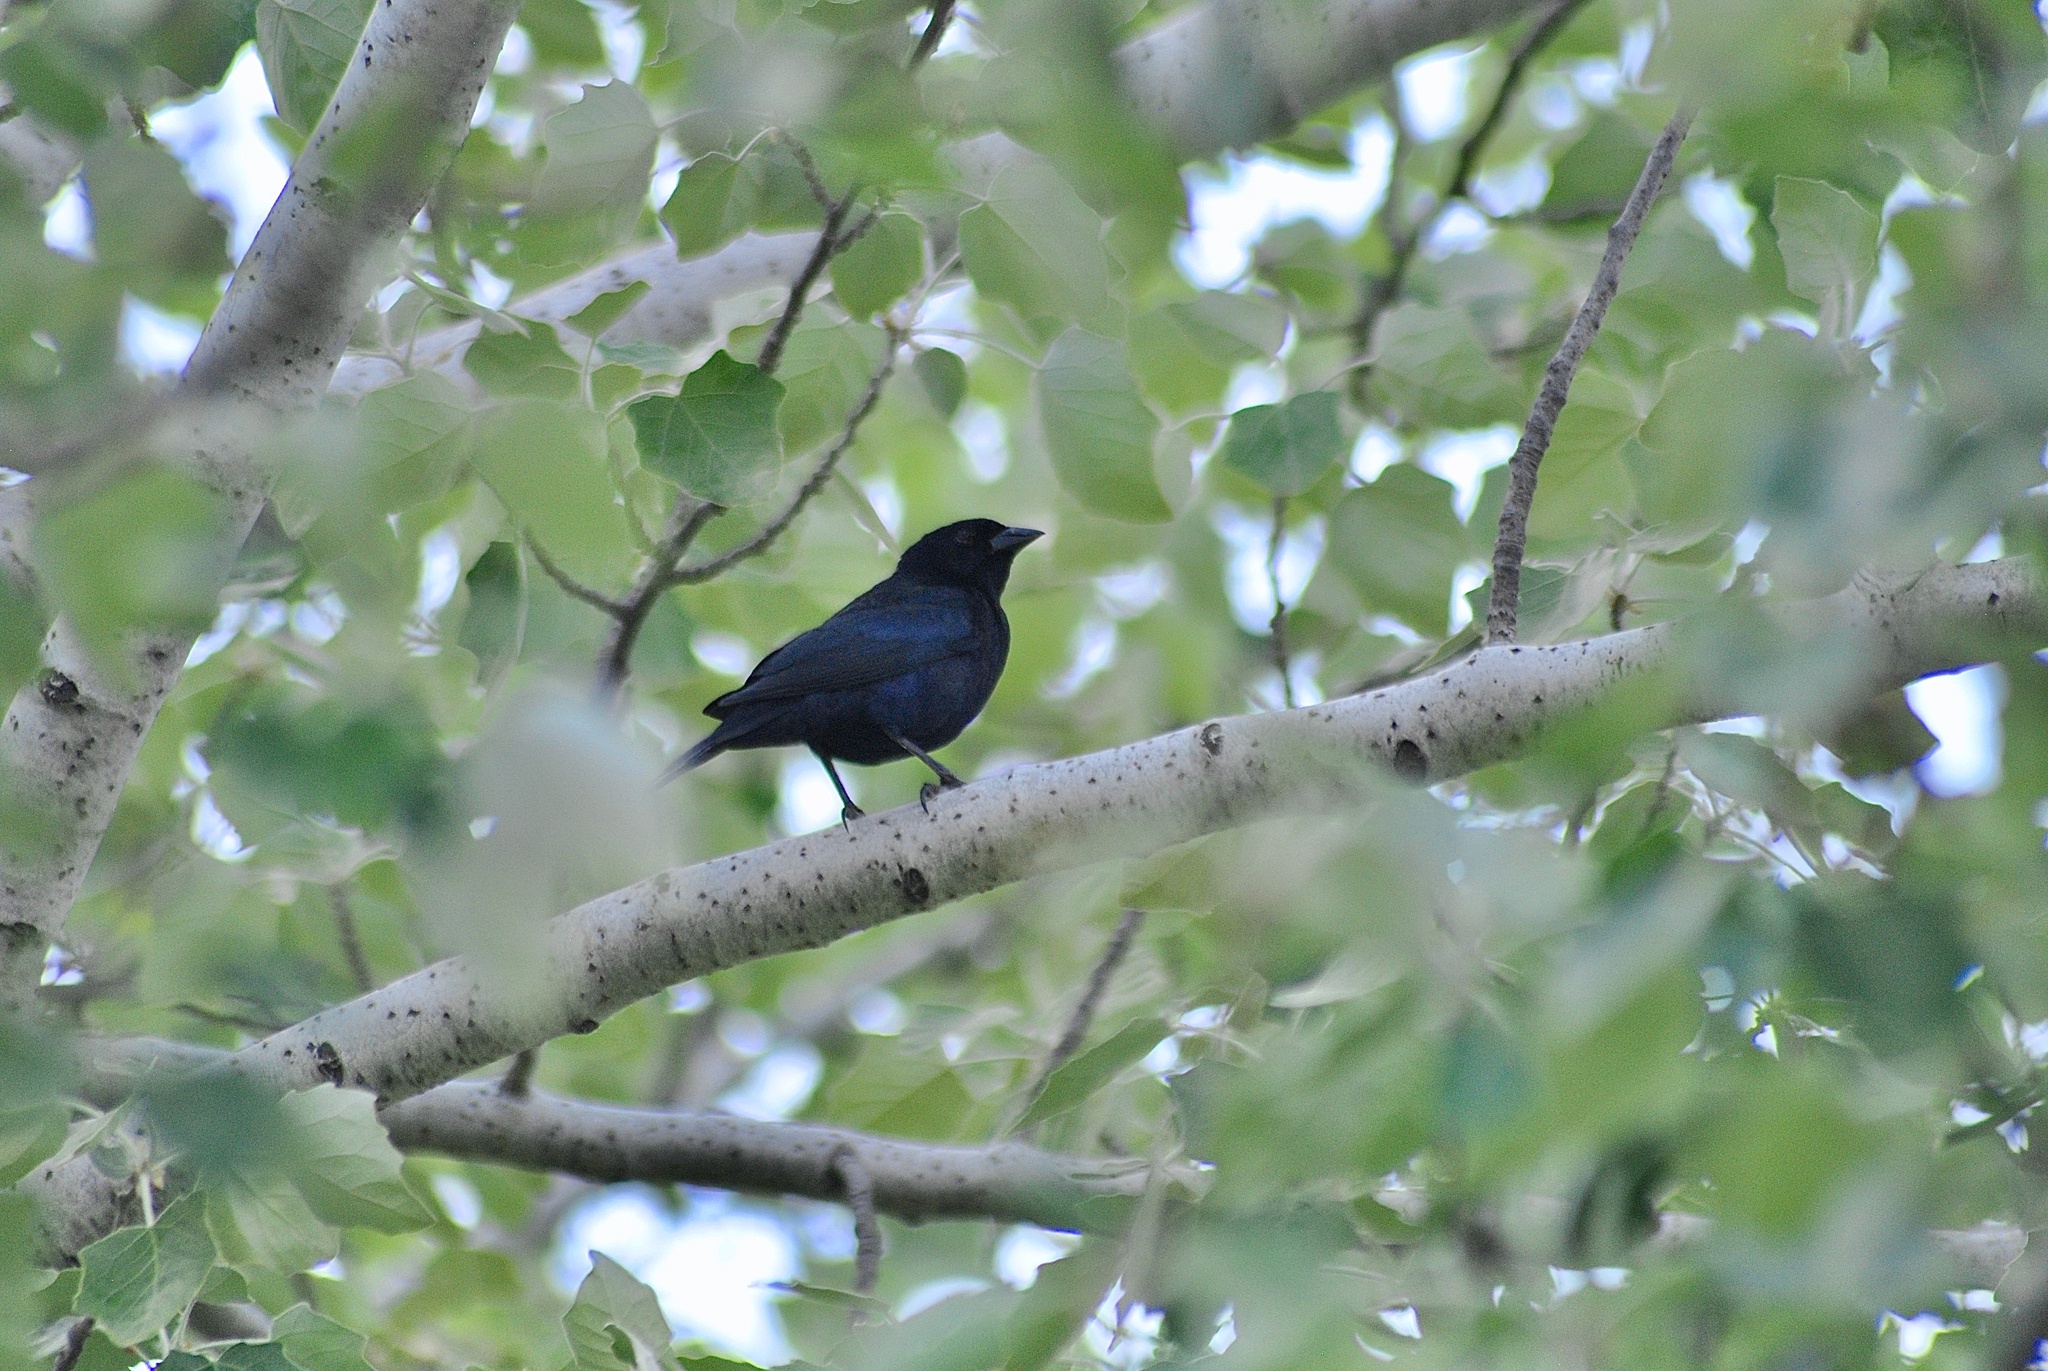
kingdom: Animalia
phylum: Chordata
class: Aves
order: Passeriformes
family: Icteridae
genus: Molothrus
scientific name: Molothrus bonariensis
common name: Shiny cowbird
